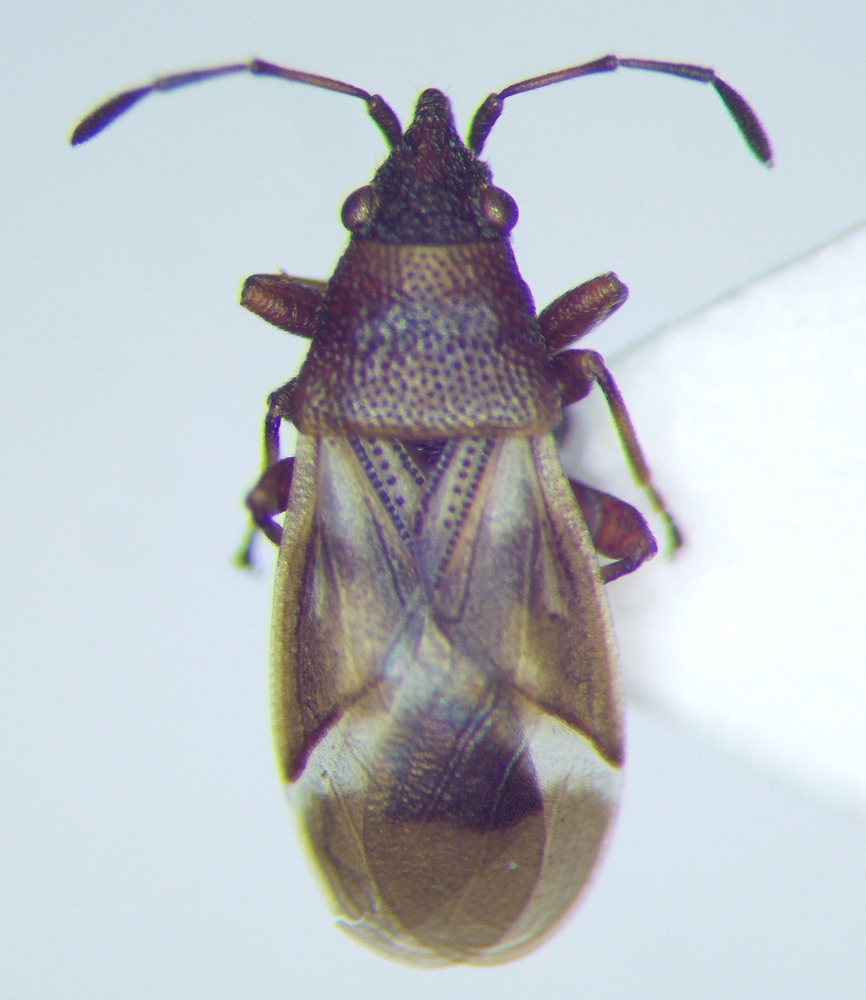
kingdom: Animalia
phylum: Arthropoda
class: Insecta
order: Hemiptera
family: Oxycarenidae
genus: Oxycarenus
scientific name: Oxycarenus modestus
